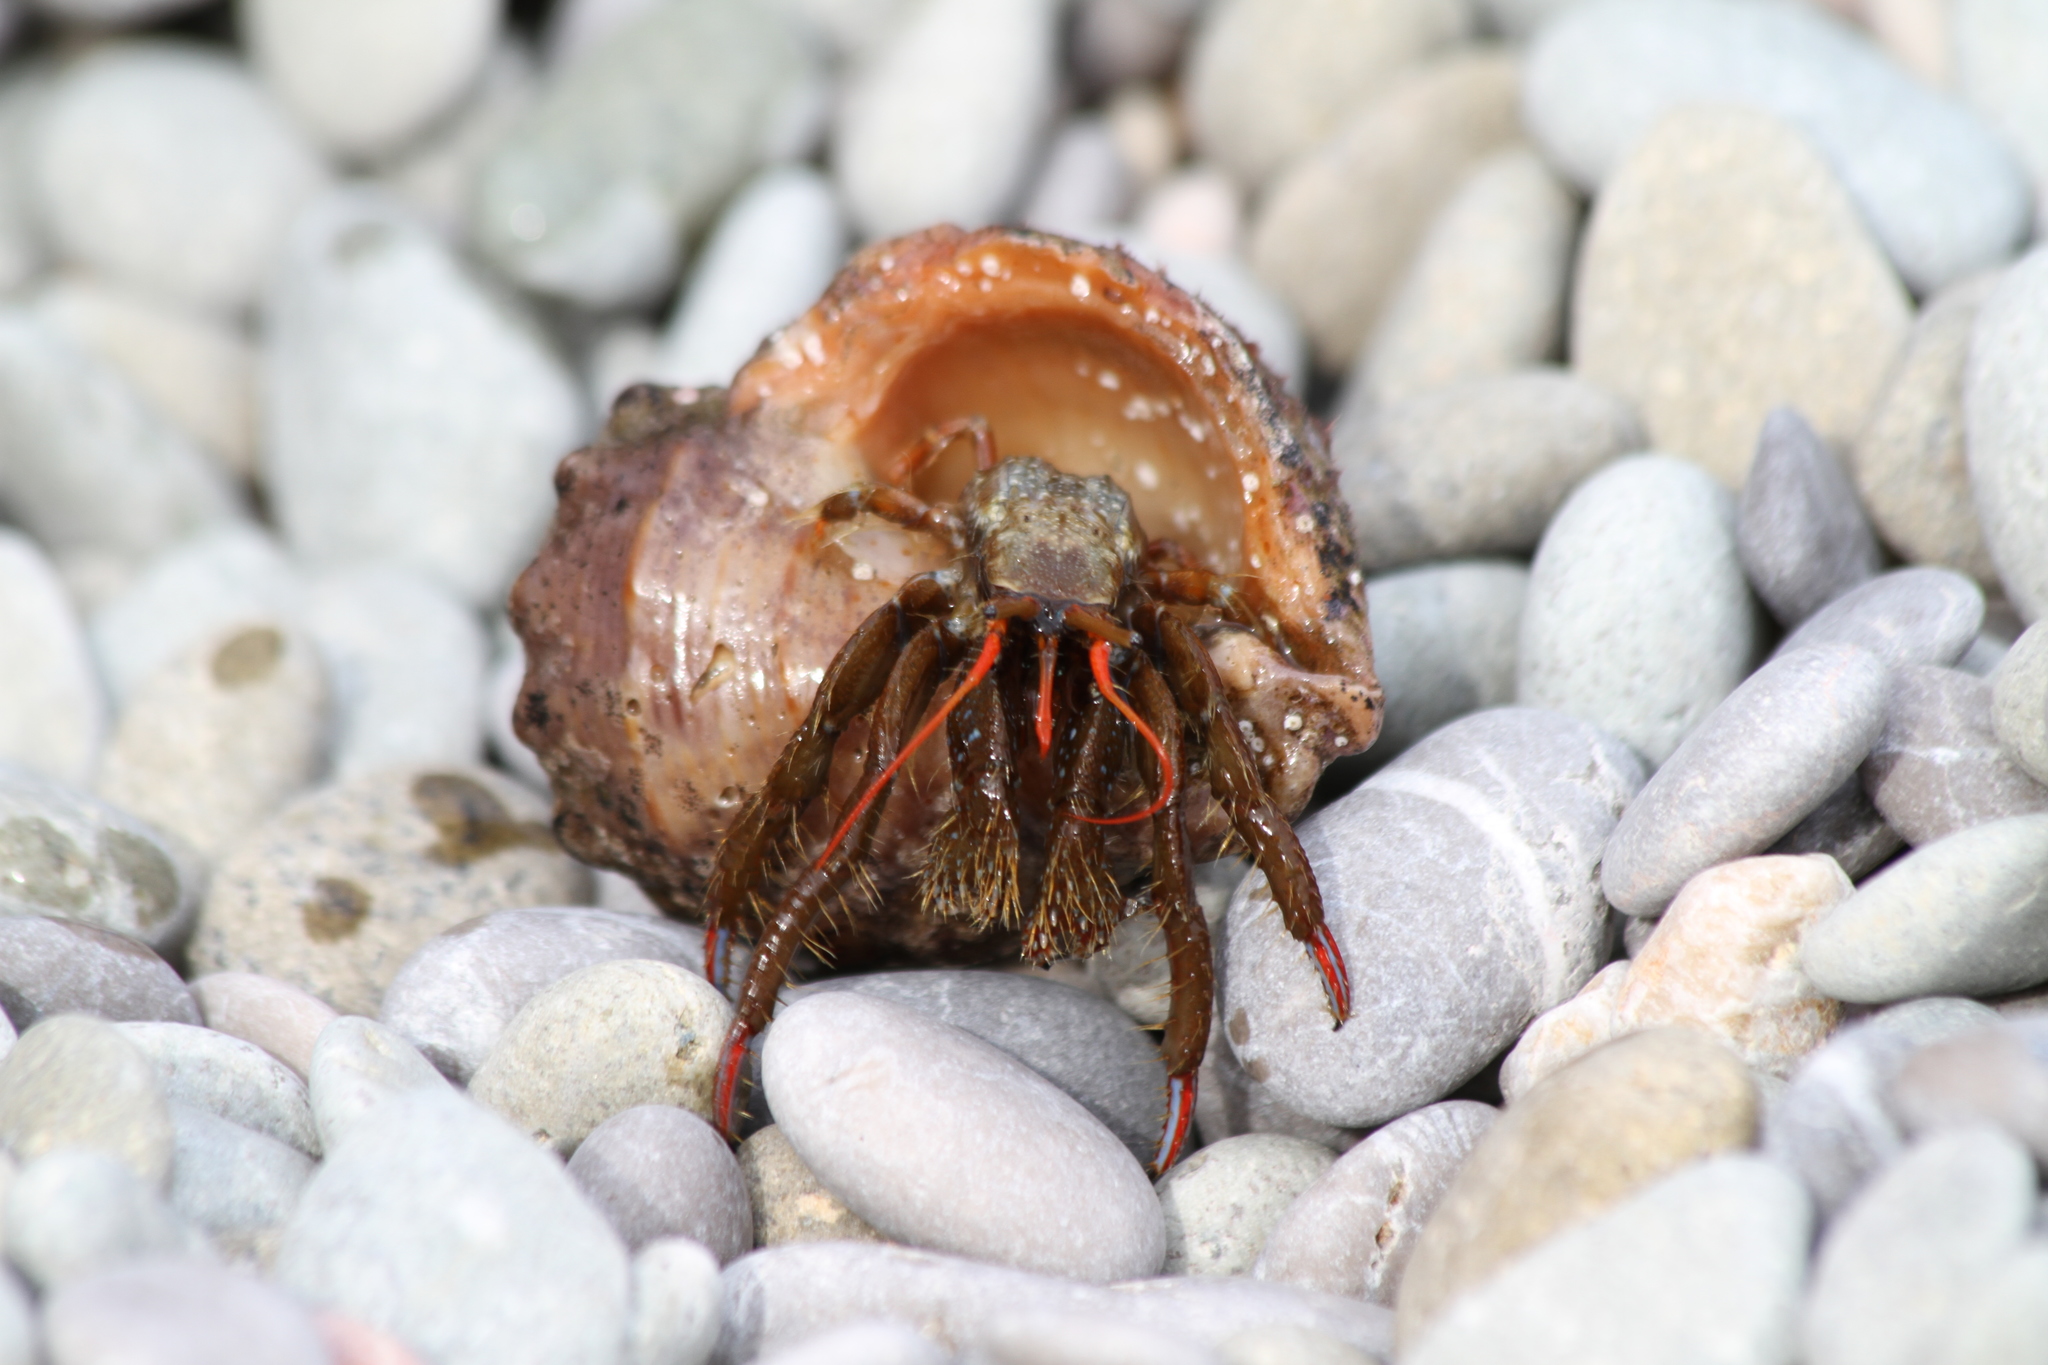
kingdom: Animalia
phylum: Arthropoda
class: Malacostraca
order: Decapoda
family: Diogenidae
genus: Clibanarius
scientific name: Clibanarius erythropus
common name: Hermit crab
